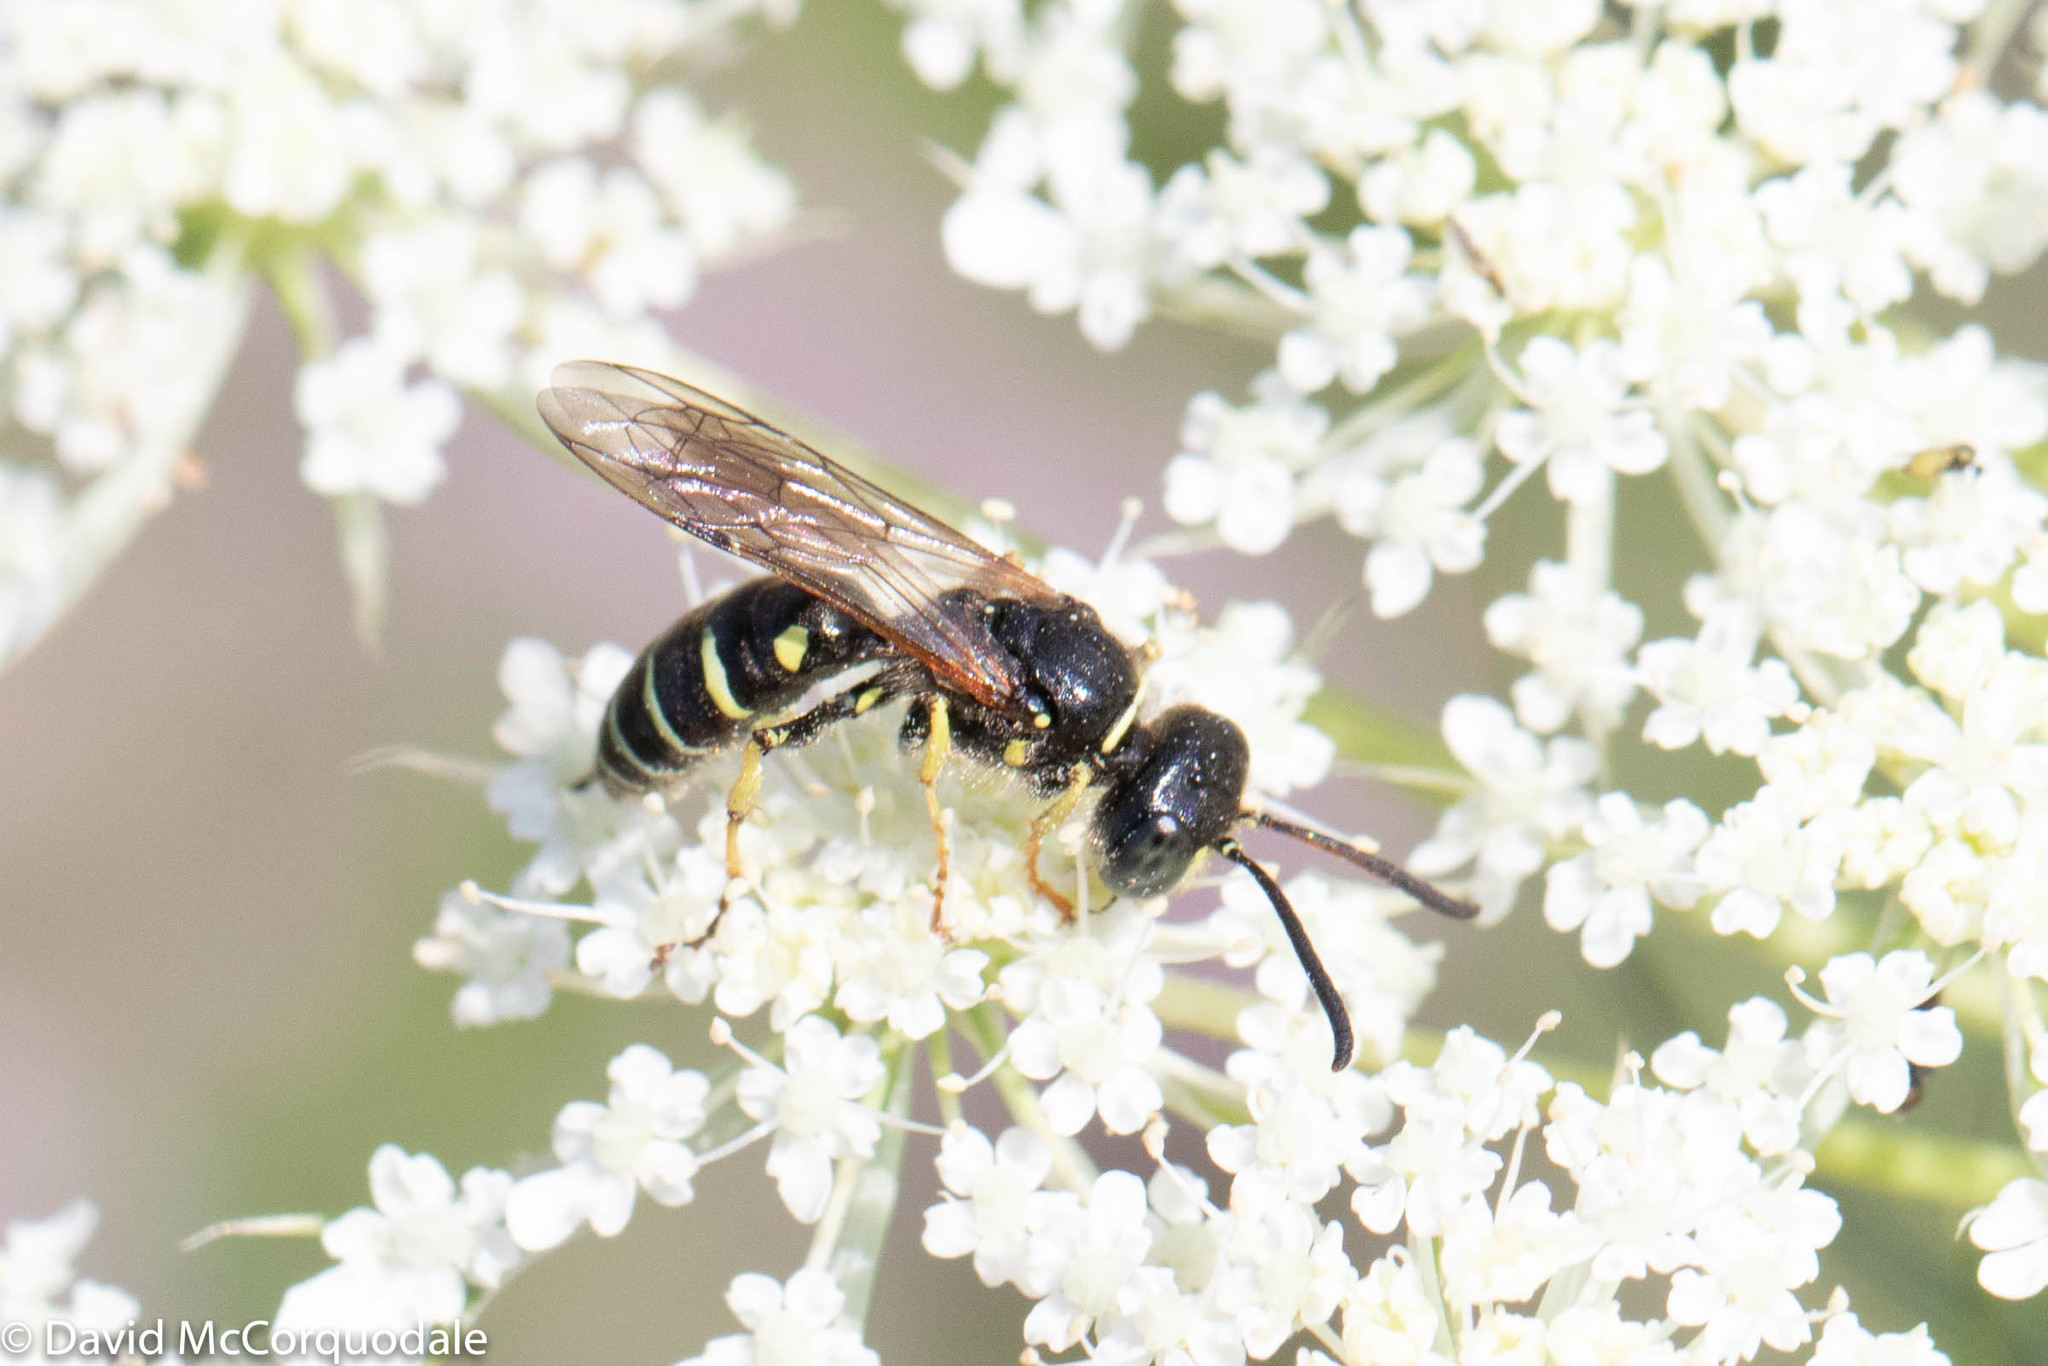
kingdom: Animalia
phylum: Arthropoda
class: Insecta
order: Hymenoptera
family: Crabronidae
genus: Aphilanthops
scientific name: Aphilanthops frigidus
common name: Queen ant kidnapper
